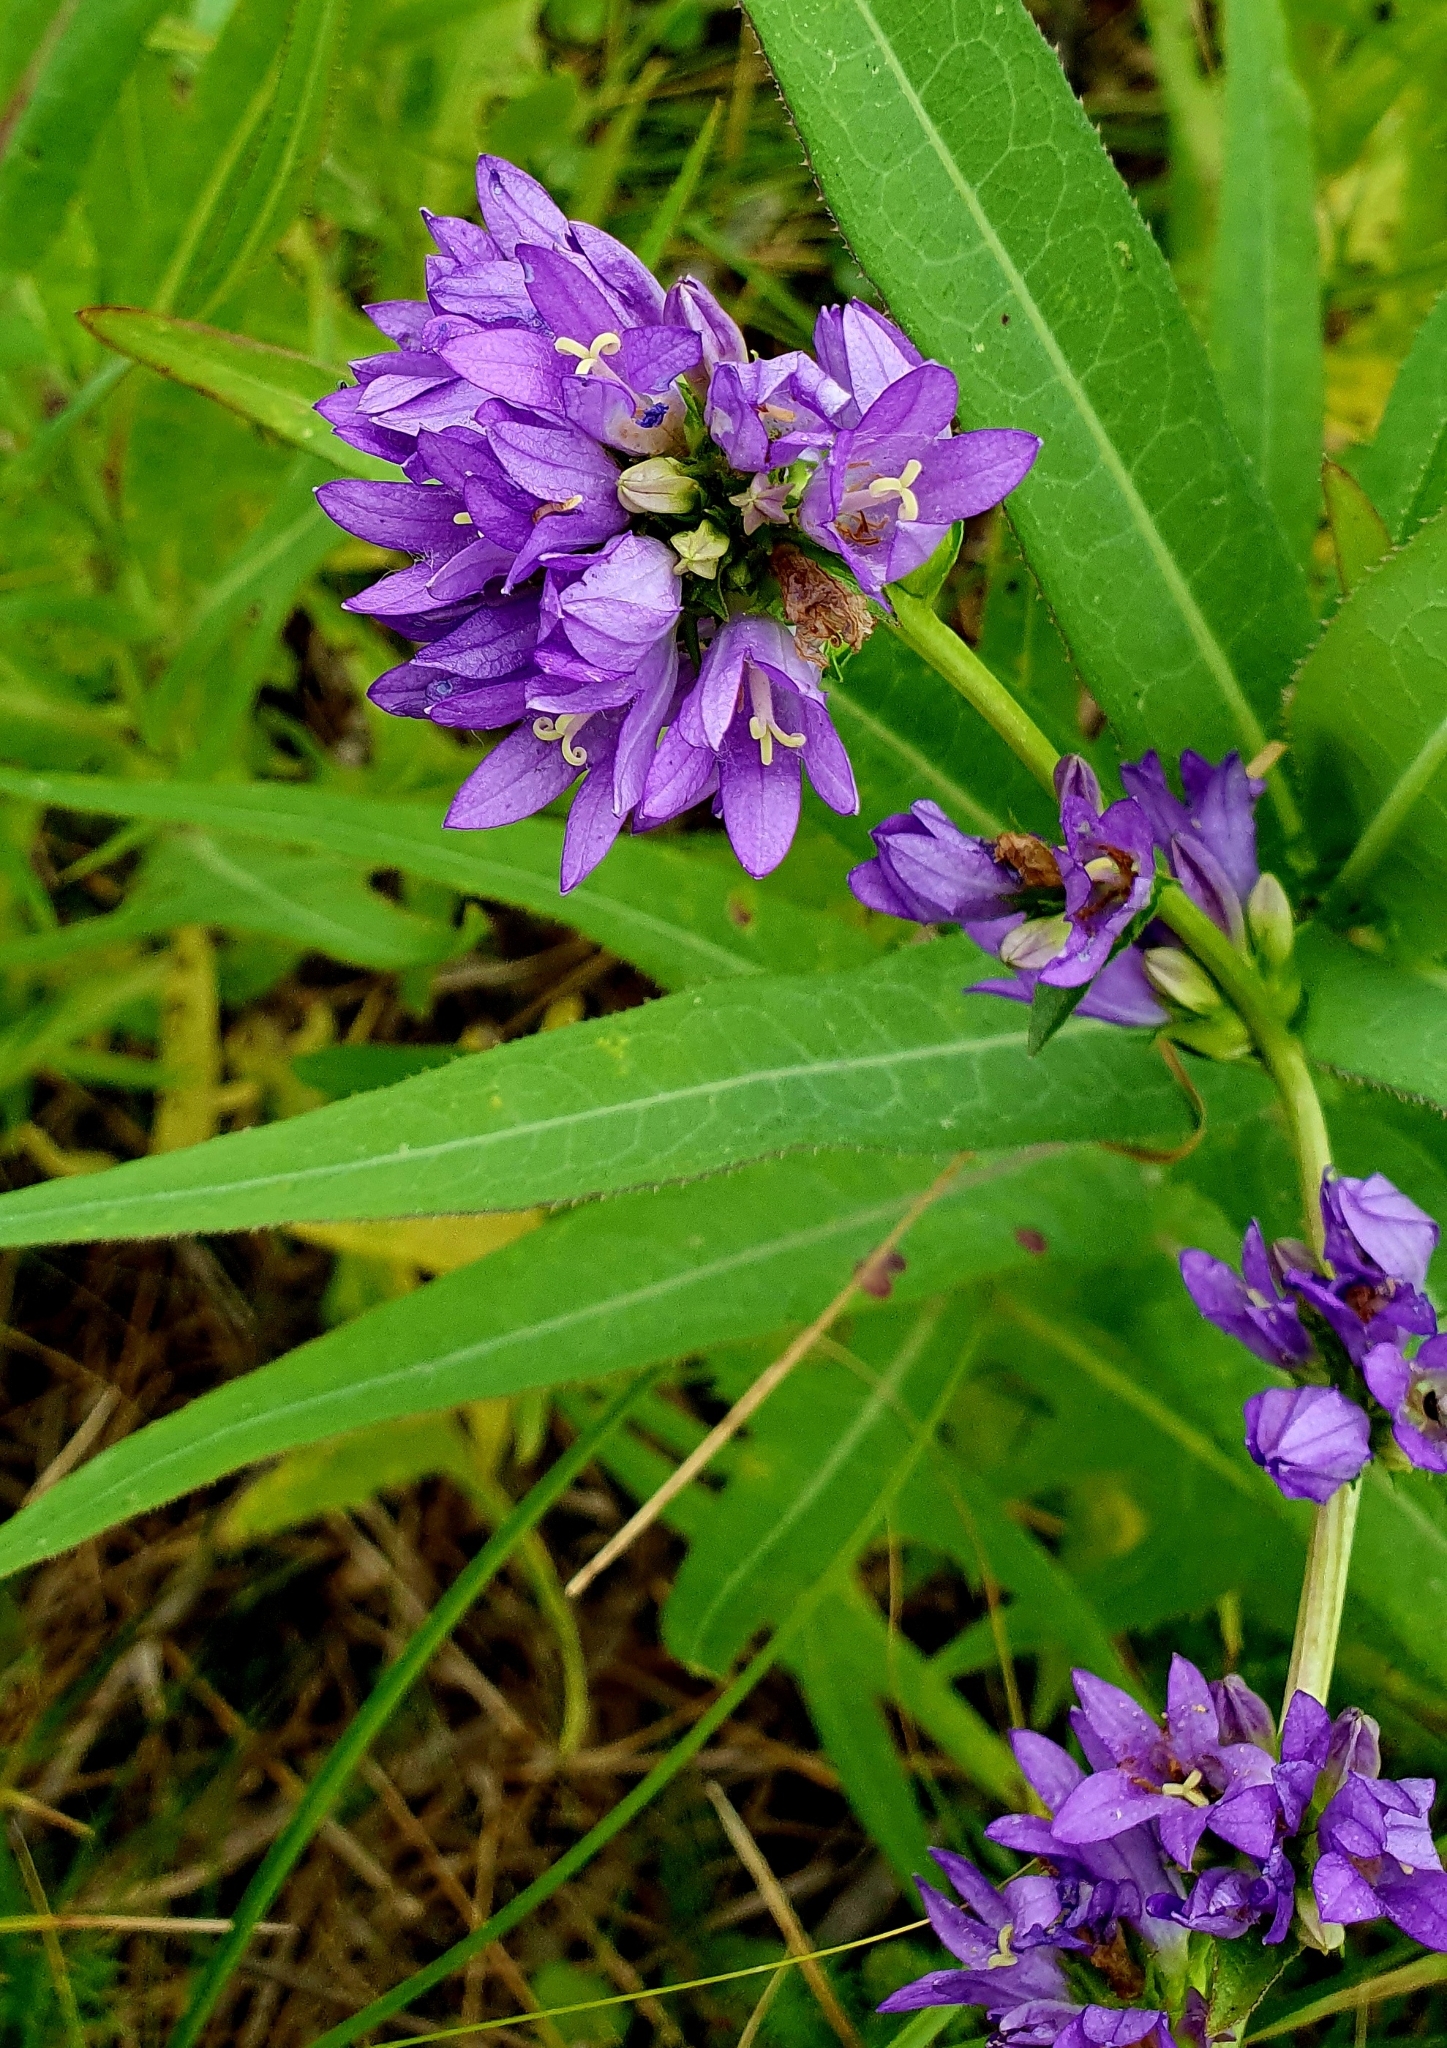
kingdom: Plantae
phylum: Tracheophyta
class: Magnoliopsida
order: Asterales
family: Campanulaceae
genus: Campanula
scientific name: Campanula glomerata
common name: Clustered bellflower
